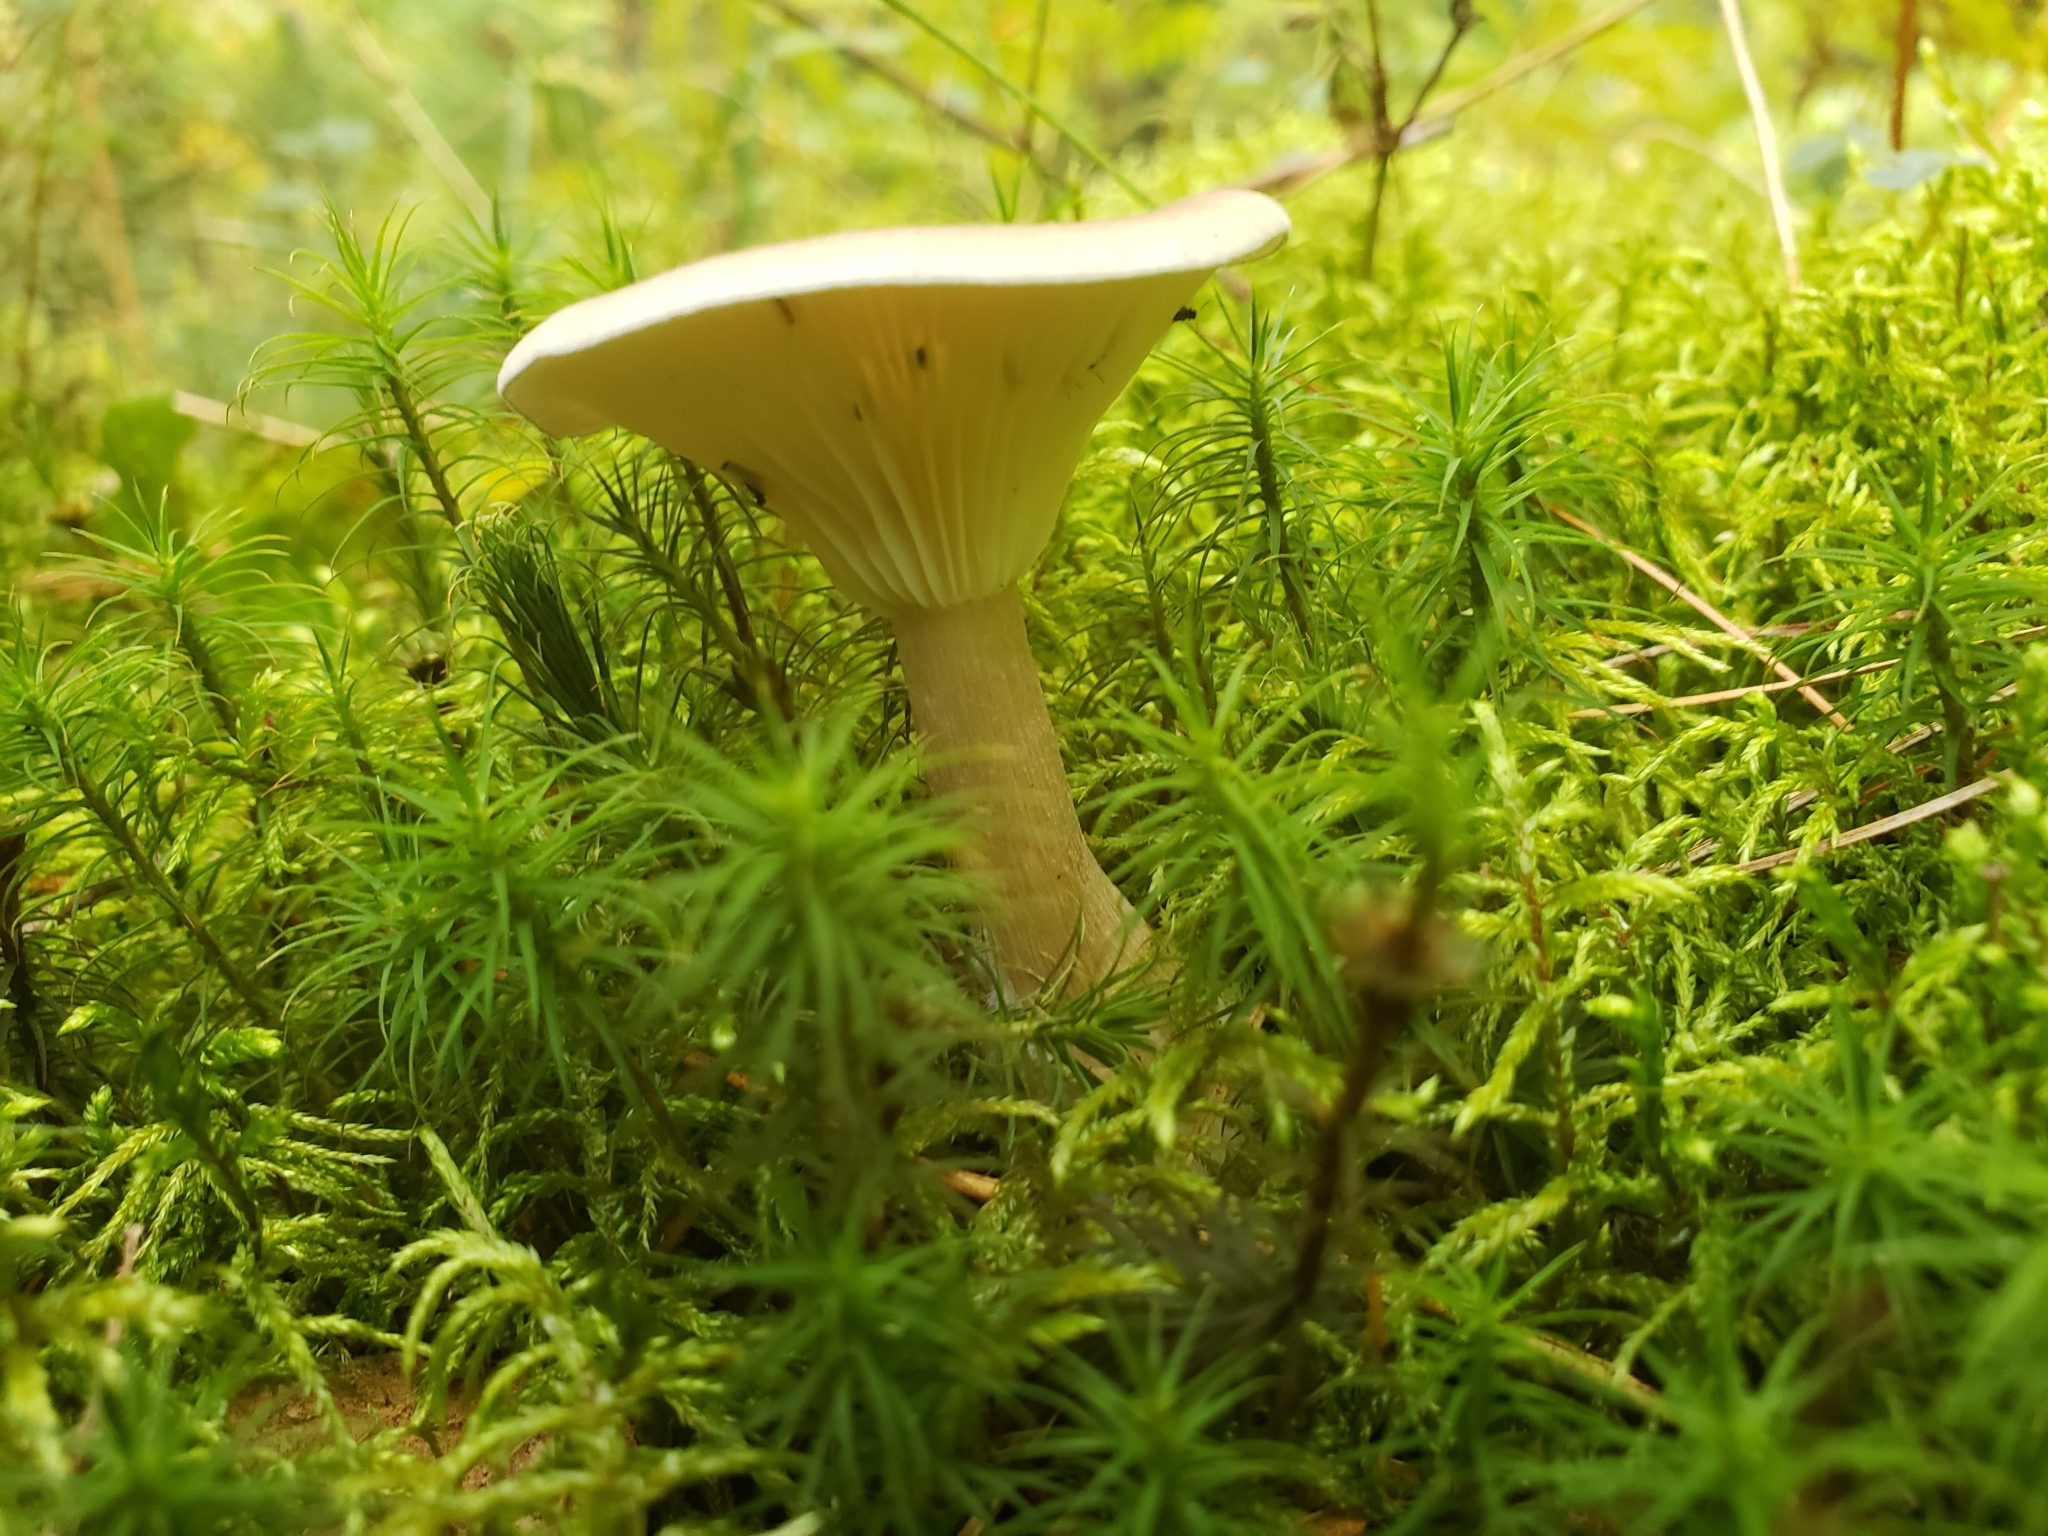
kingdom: Fungi
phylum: Basidiomycota
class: Agaricomycetes
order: Agaricales
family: Hygrophoraceae
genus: Ampulloclitocybe
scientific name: Ampulloclitocybe clavipes
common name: Club foot
